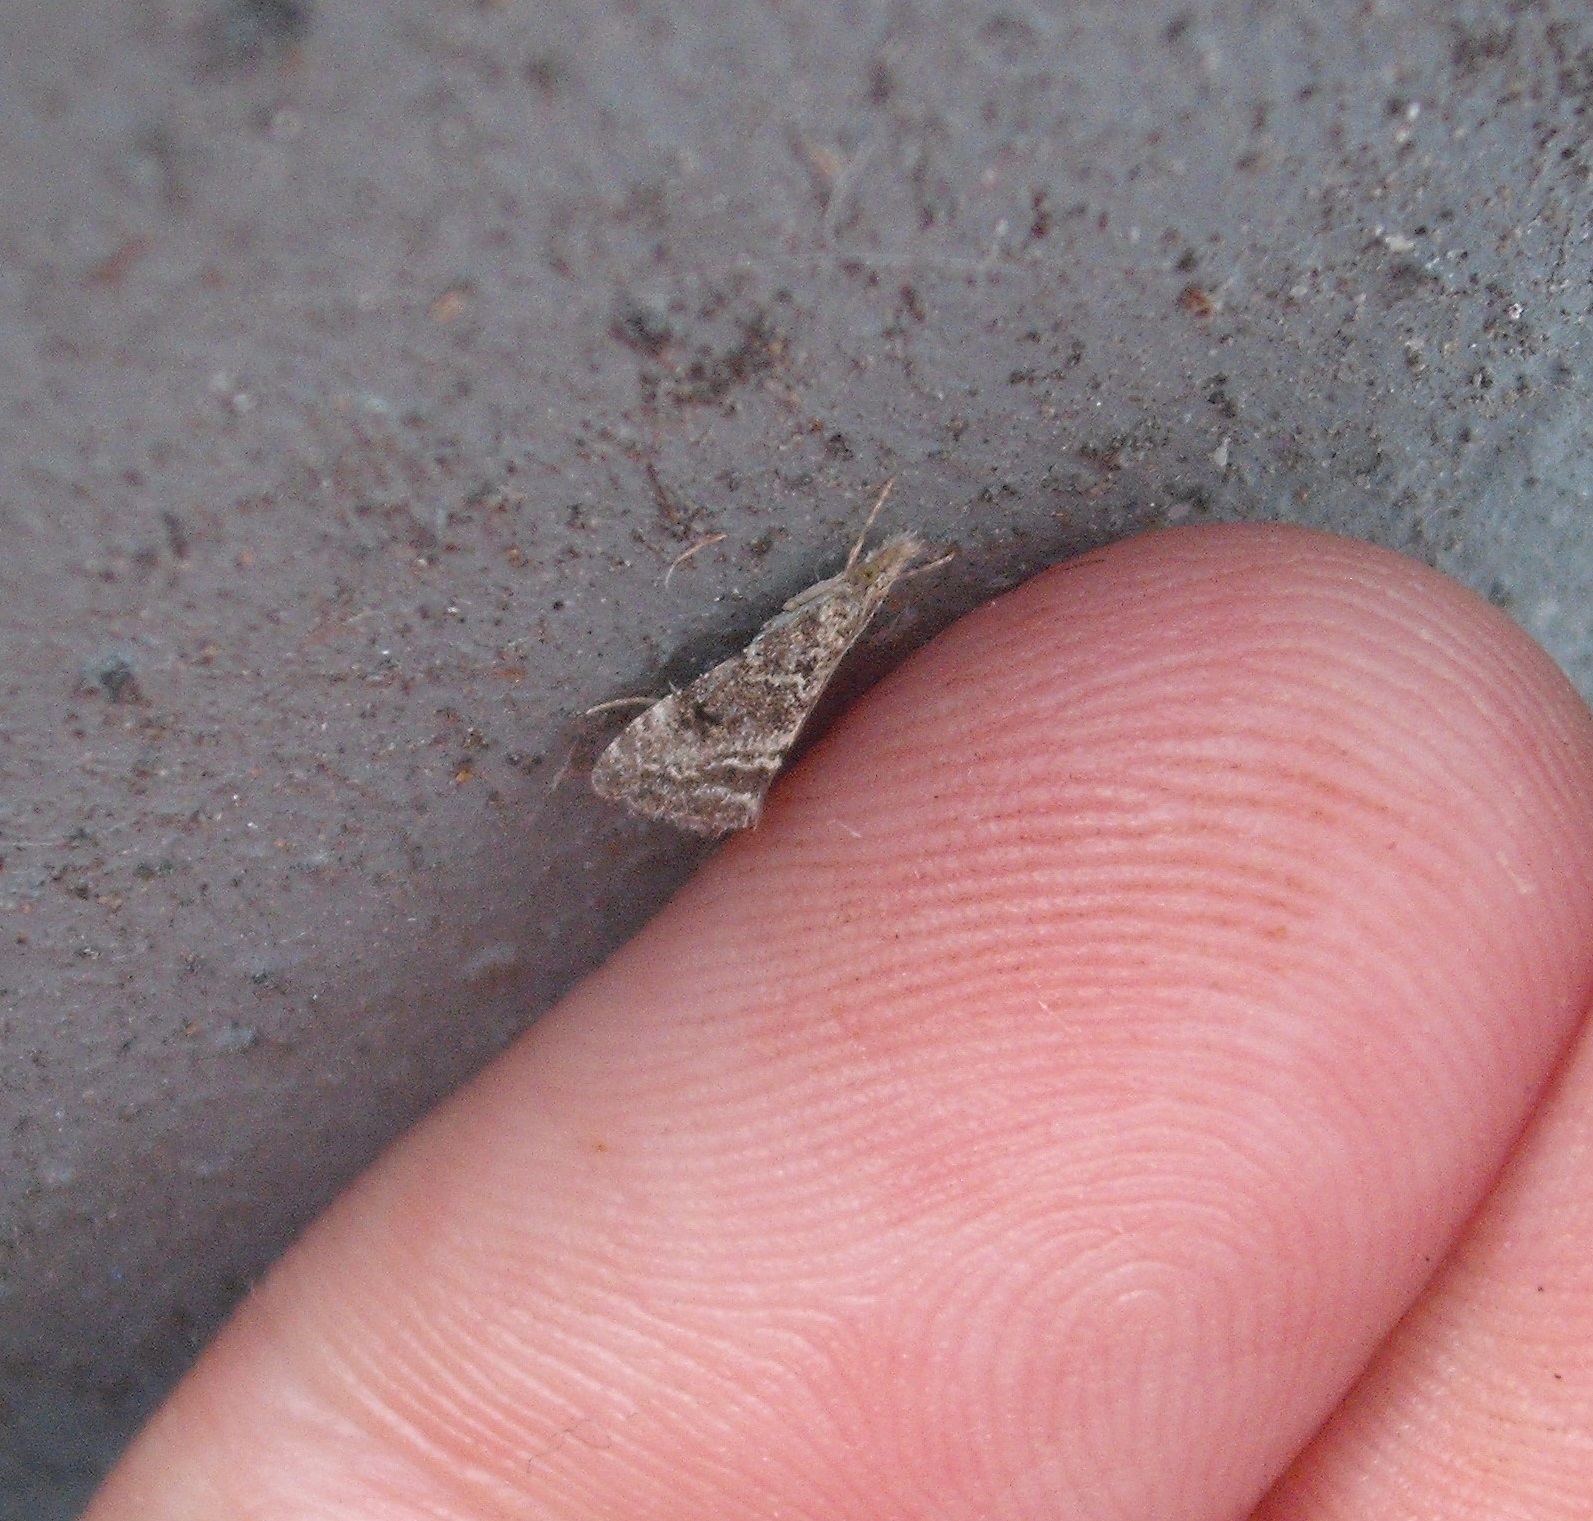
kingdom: Animalia
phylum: Arthropoda
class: Insecta
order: Lepidoptera
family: Crambidae
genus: Glaucocharis
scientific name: Glaucocharis elaina
